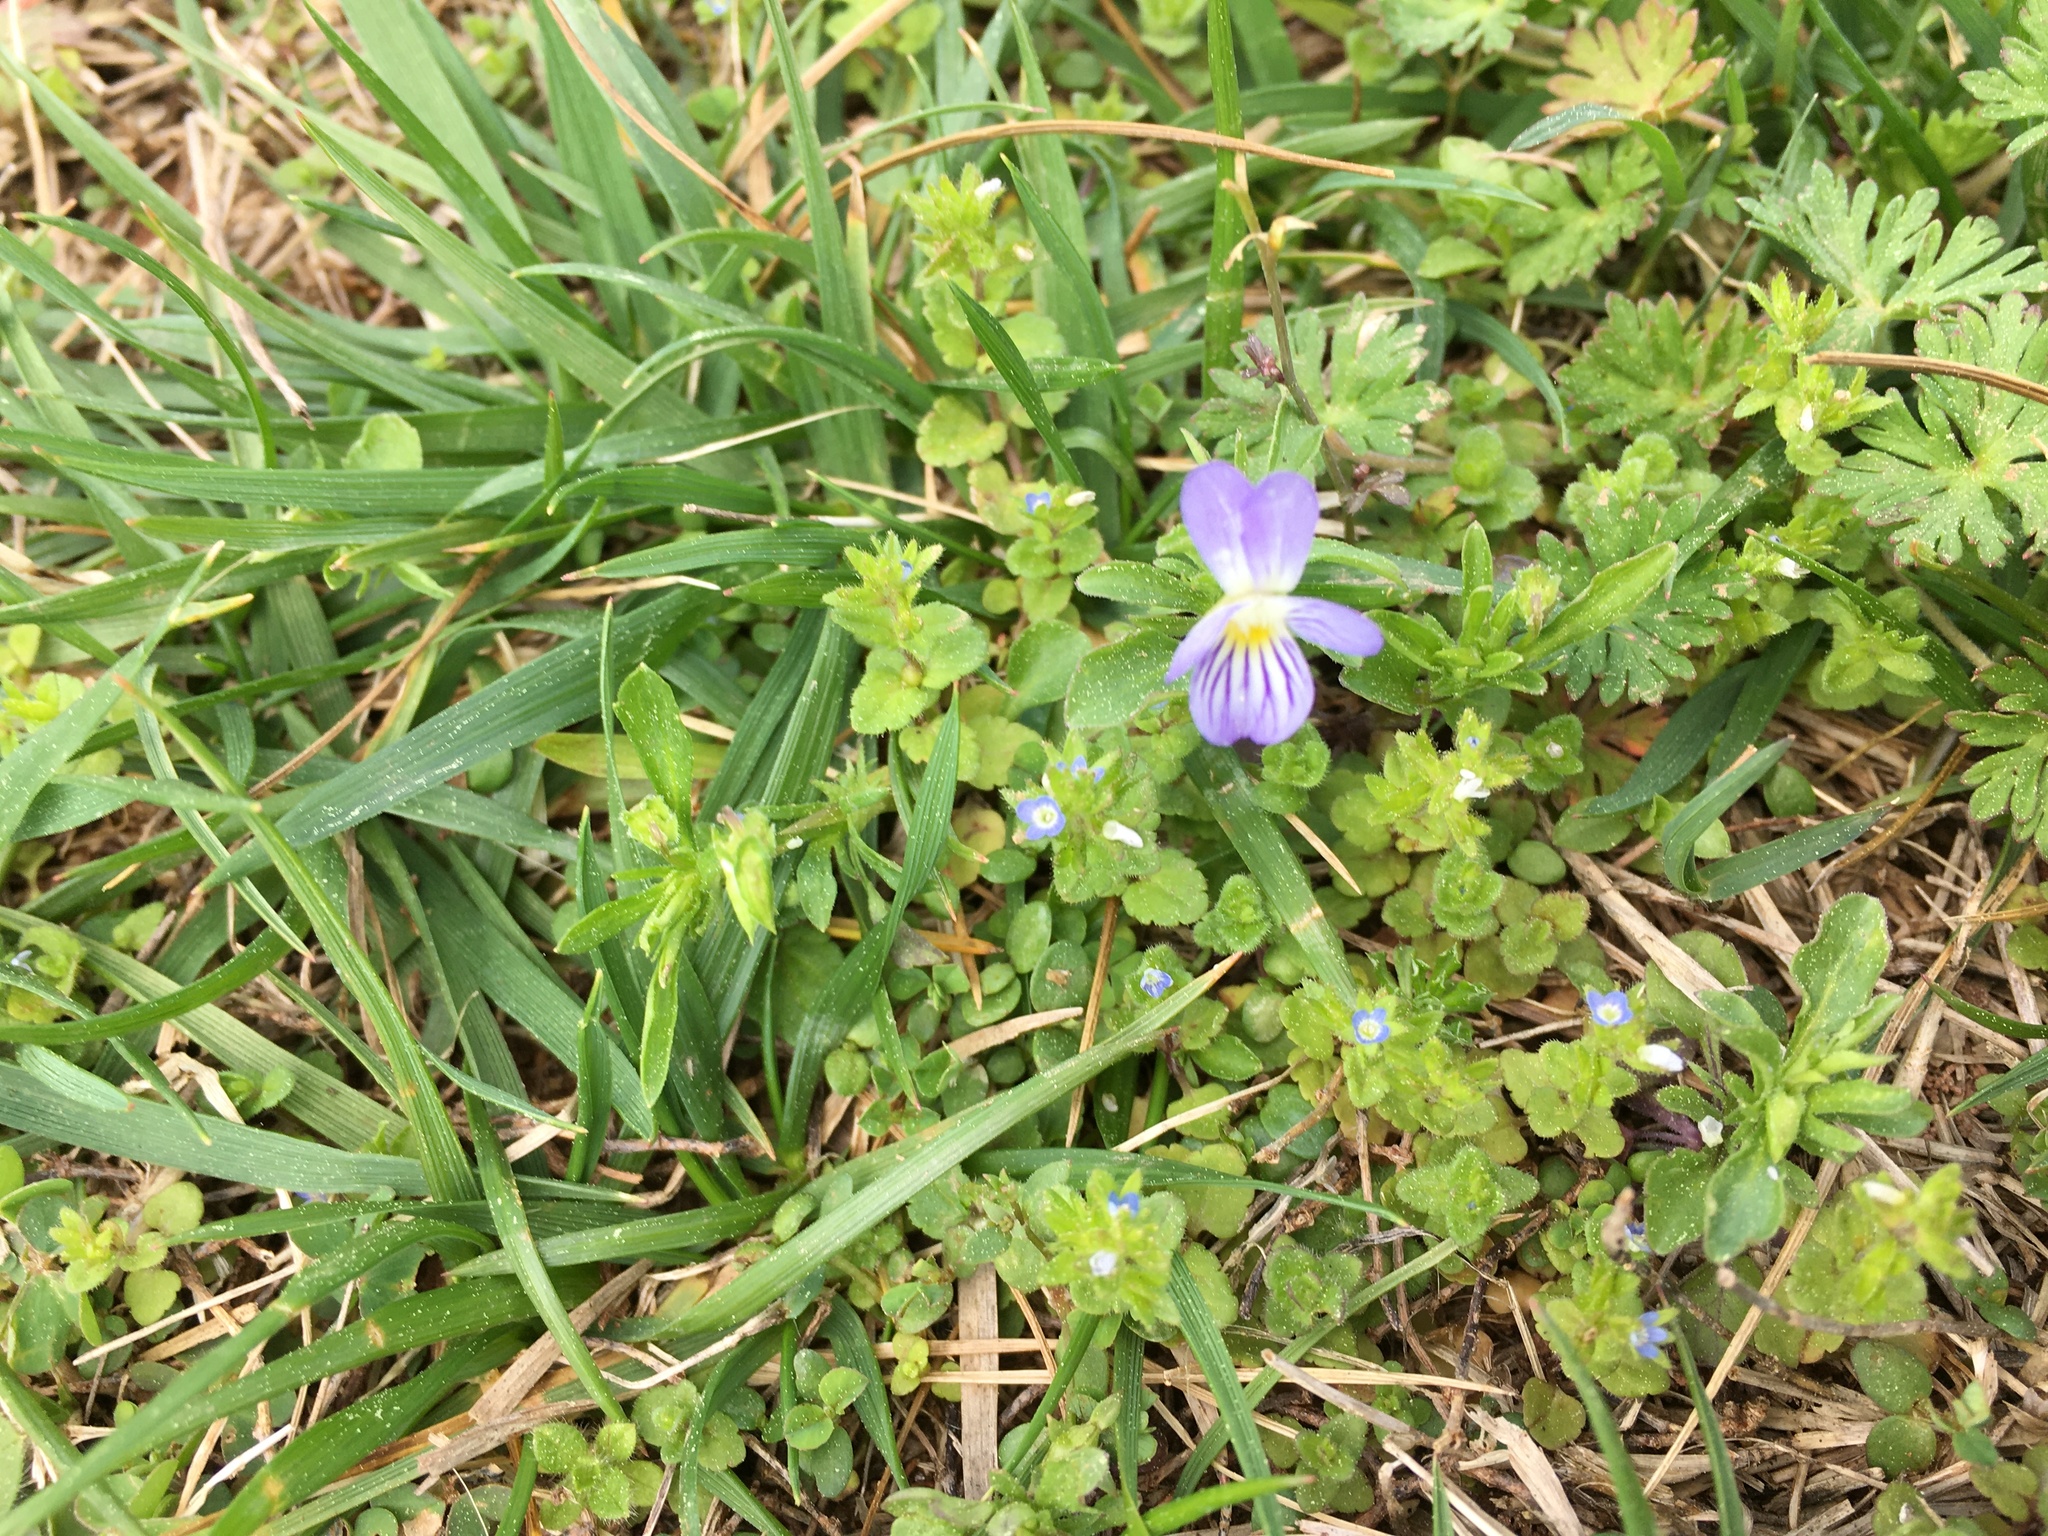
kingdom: Plantae
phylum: Tracheophyta
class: Magnoliopsida
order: Malpighiales
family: Violaceae
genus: Viola
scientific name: Viola rafinesquei
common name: American field pansy
